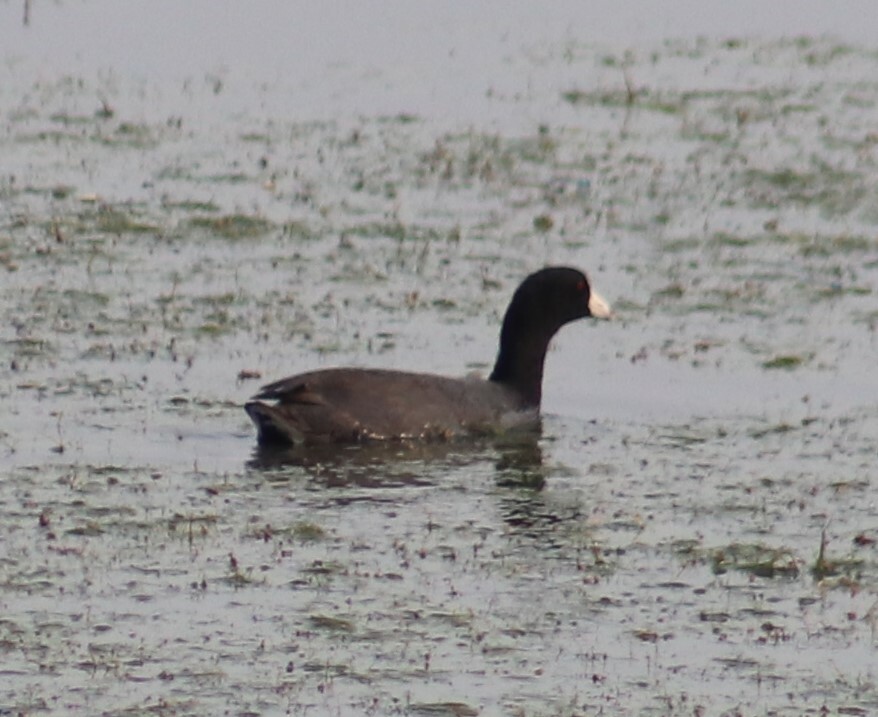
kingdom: Animalia
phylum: Chordata
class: Aves
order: Gruiformes
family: Rallidae
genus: Fulica
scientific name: Fulica americana
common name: American coot
